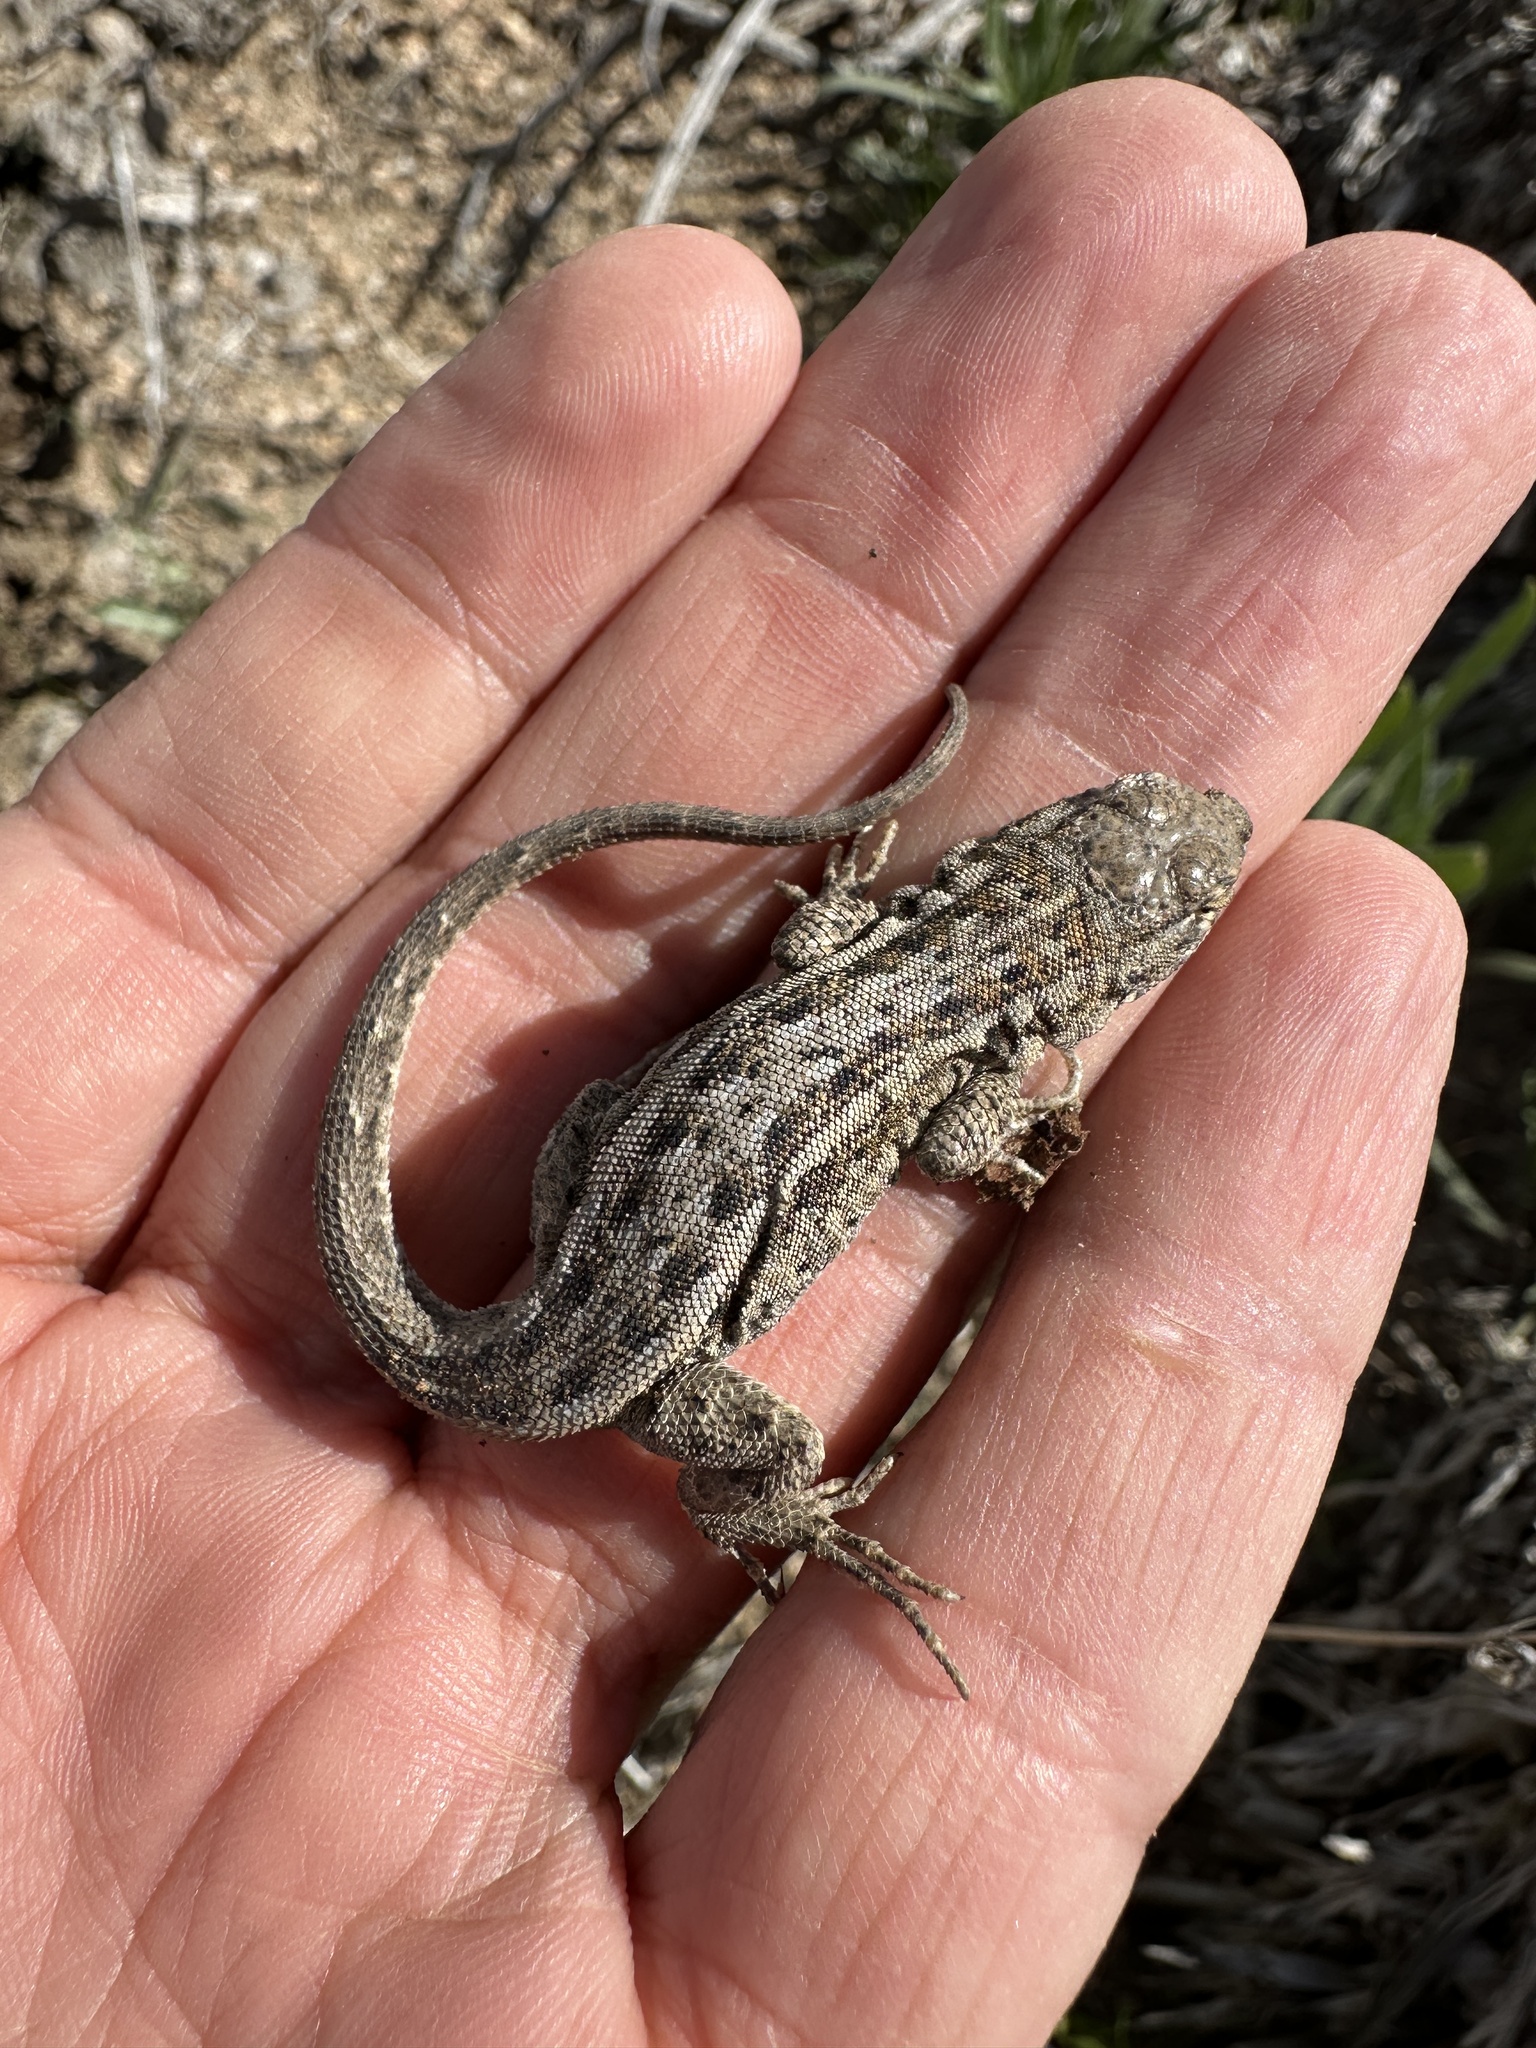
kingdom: Animalia
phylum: Chordata
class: Squamata
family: Phrynosomatidae
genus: Uta
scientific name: Uta stansburiana
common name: Side-blotched lizard
